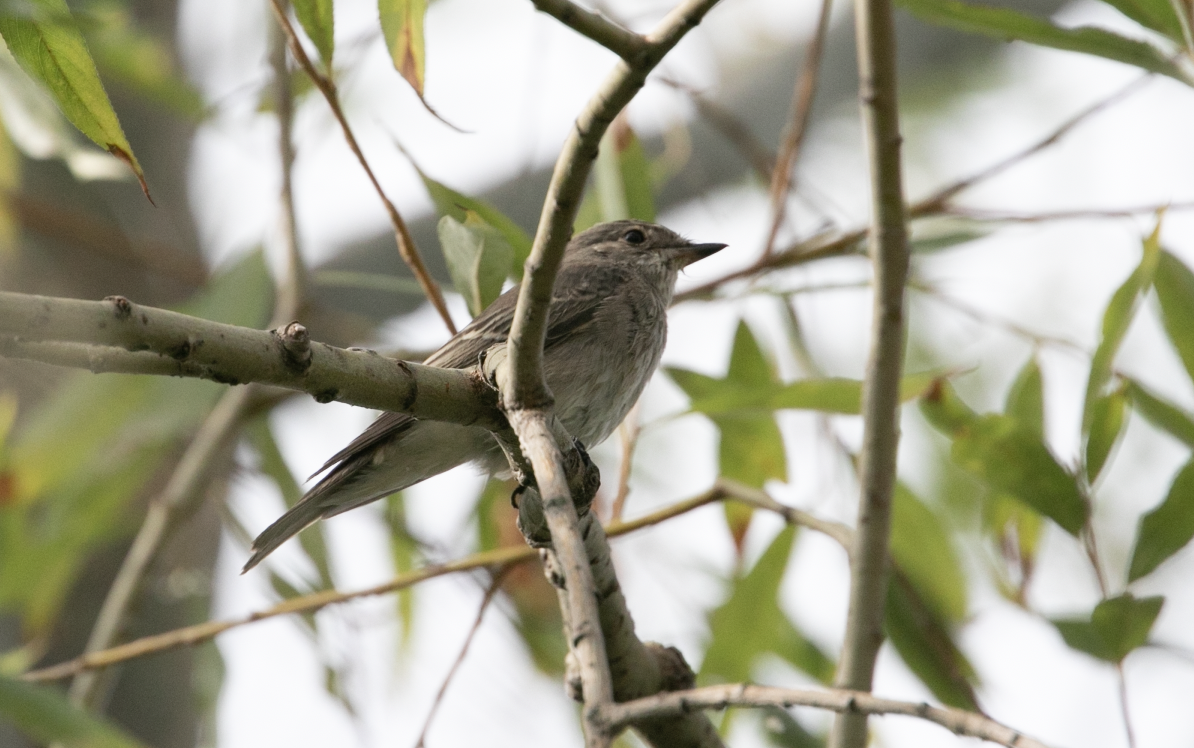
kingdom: Animalia
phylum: Chordata
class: Aves
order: Passeriformes
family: Muscicapidae
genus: Muscicapa
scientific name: Muscicapa striata
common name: Spotted flycatcher
